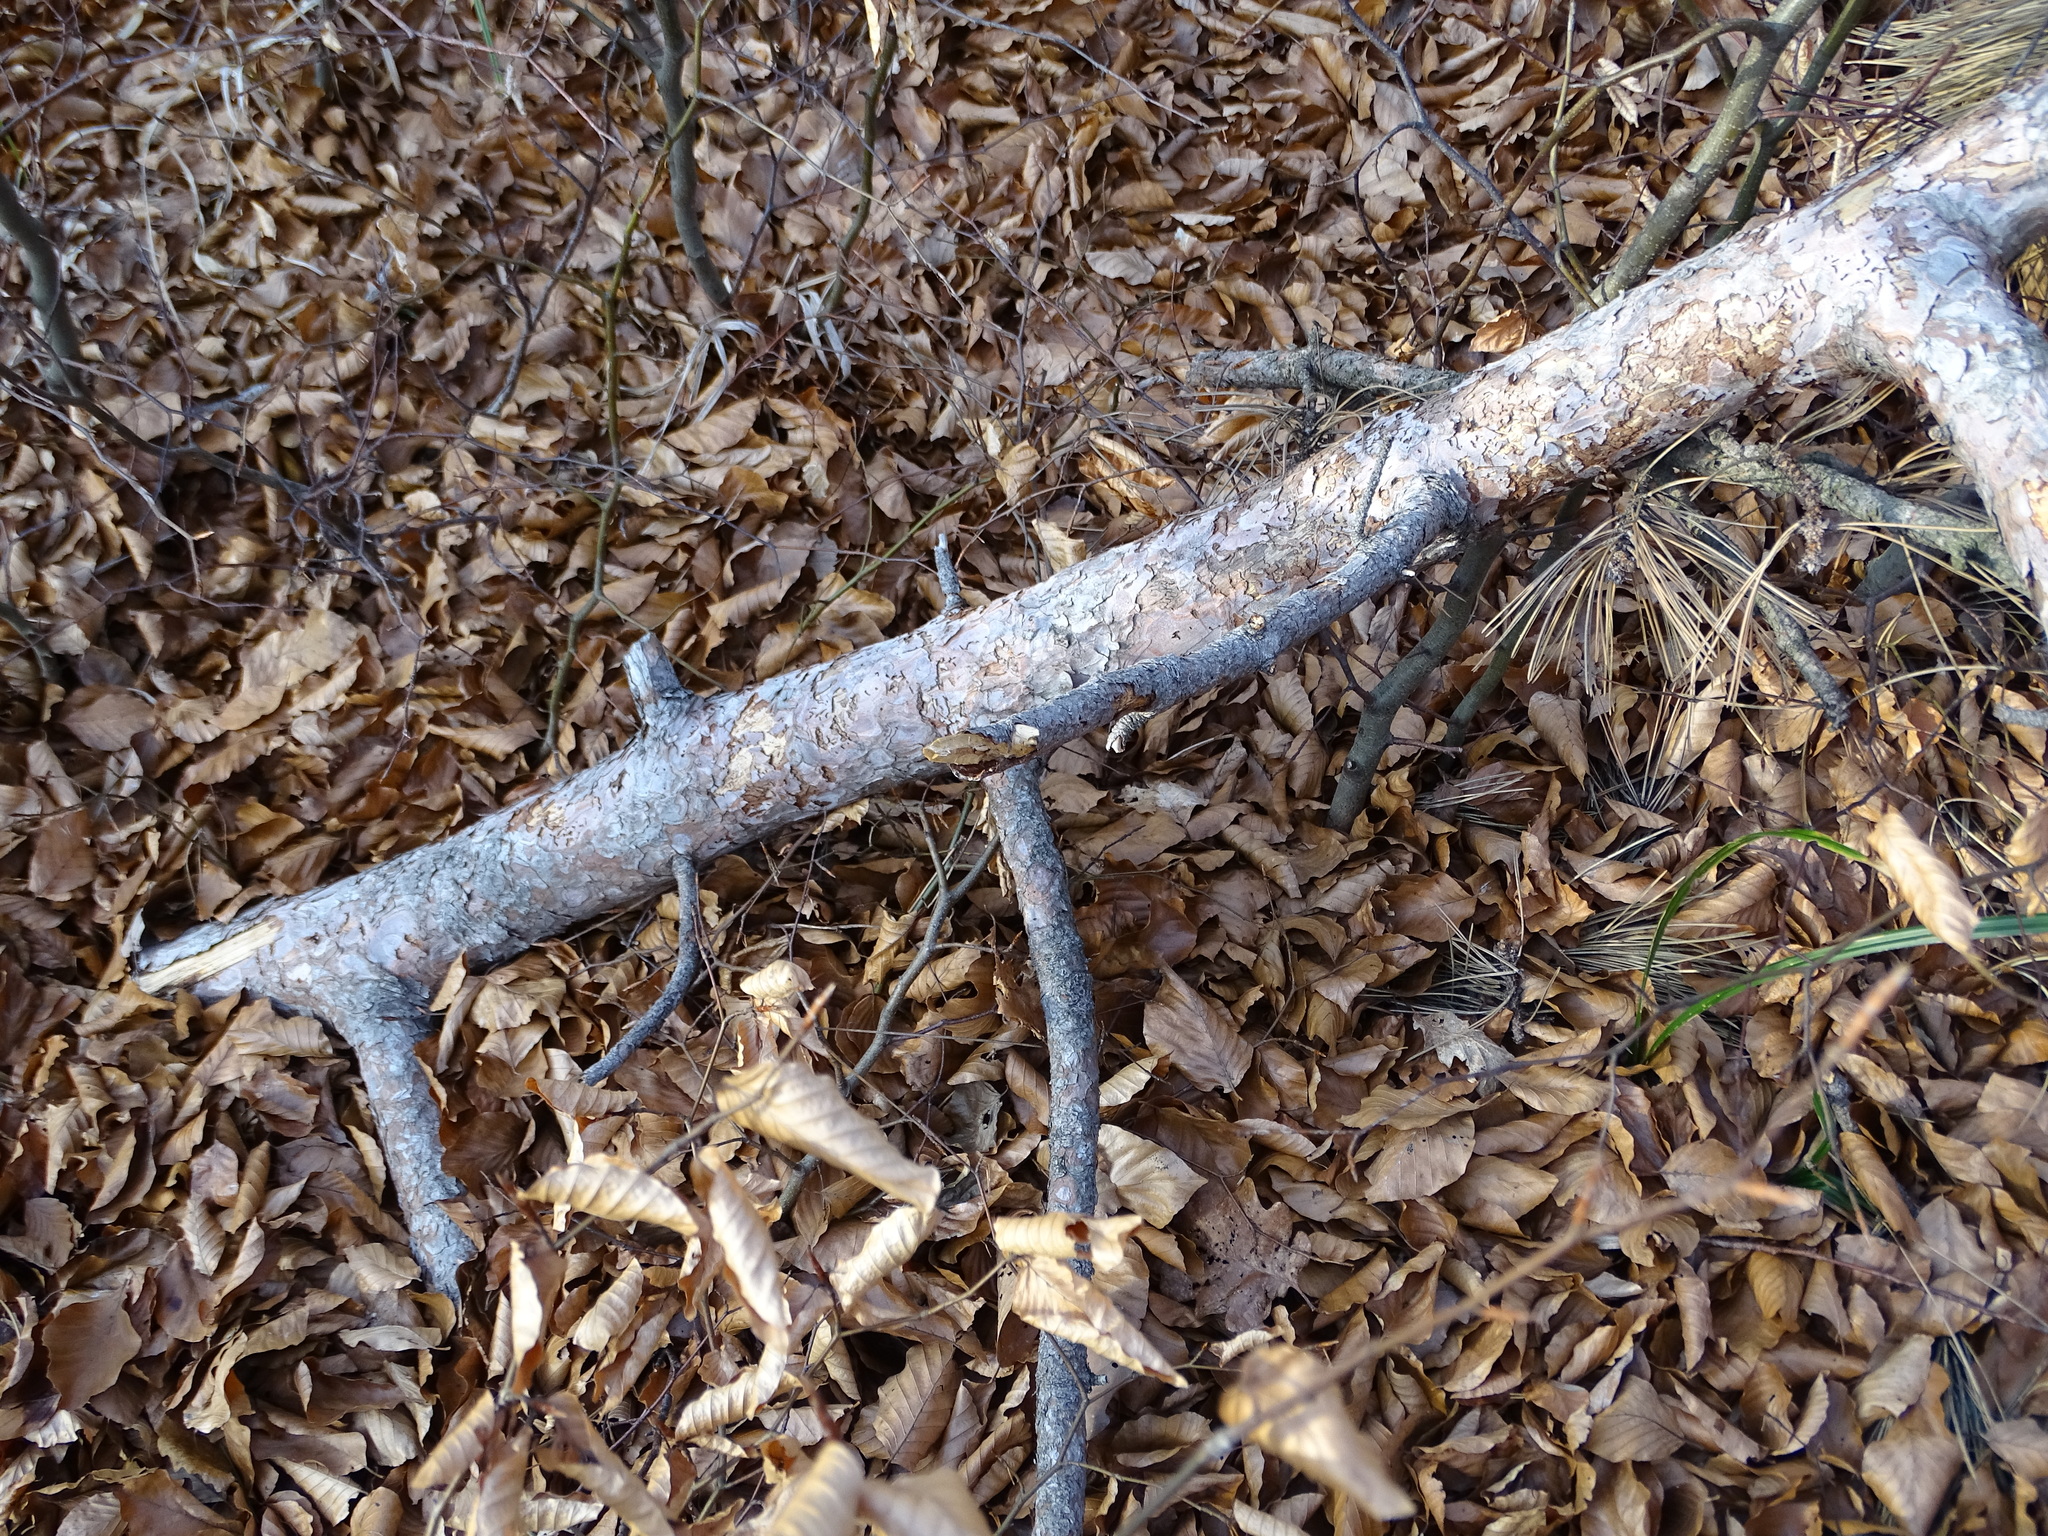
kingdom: Plantae
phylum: Tracheophyta
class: Pinopsida
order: Pinales
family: Pinaceae
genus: Pinus
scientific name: Pinus nigra
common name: Austrian pine
